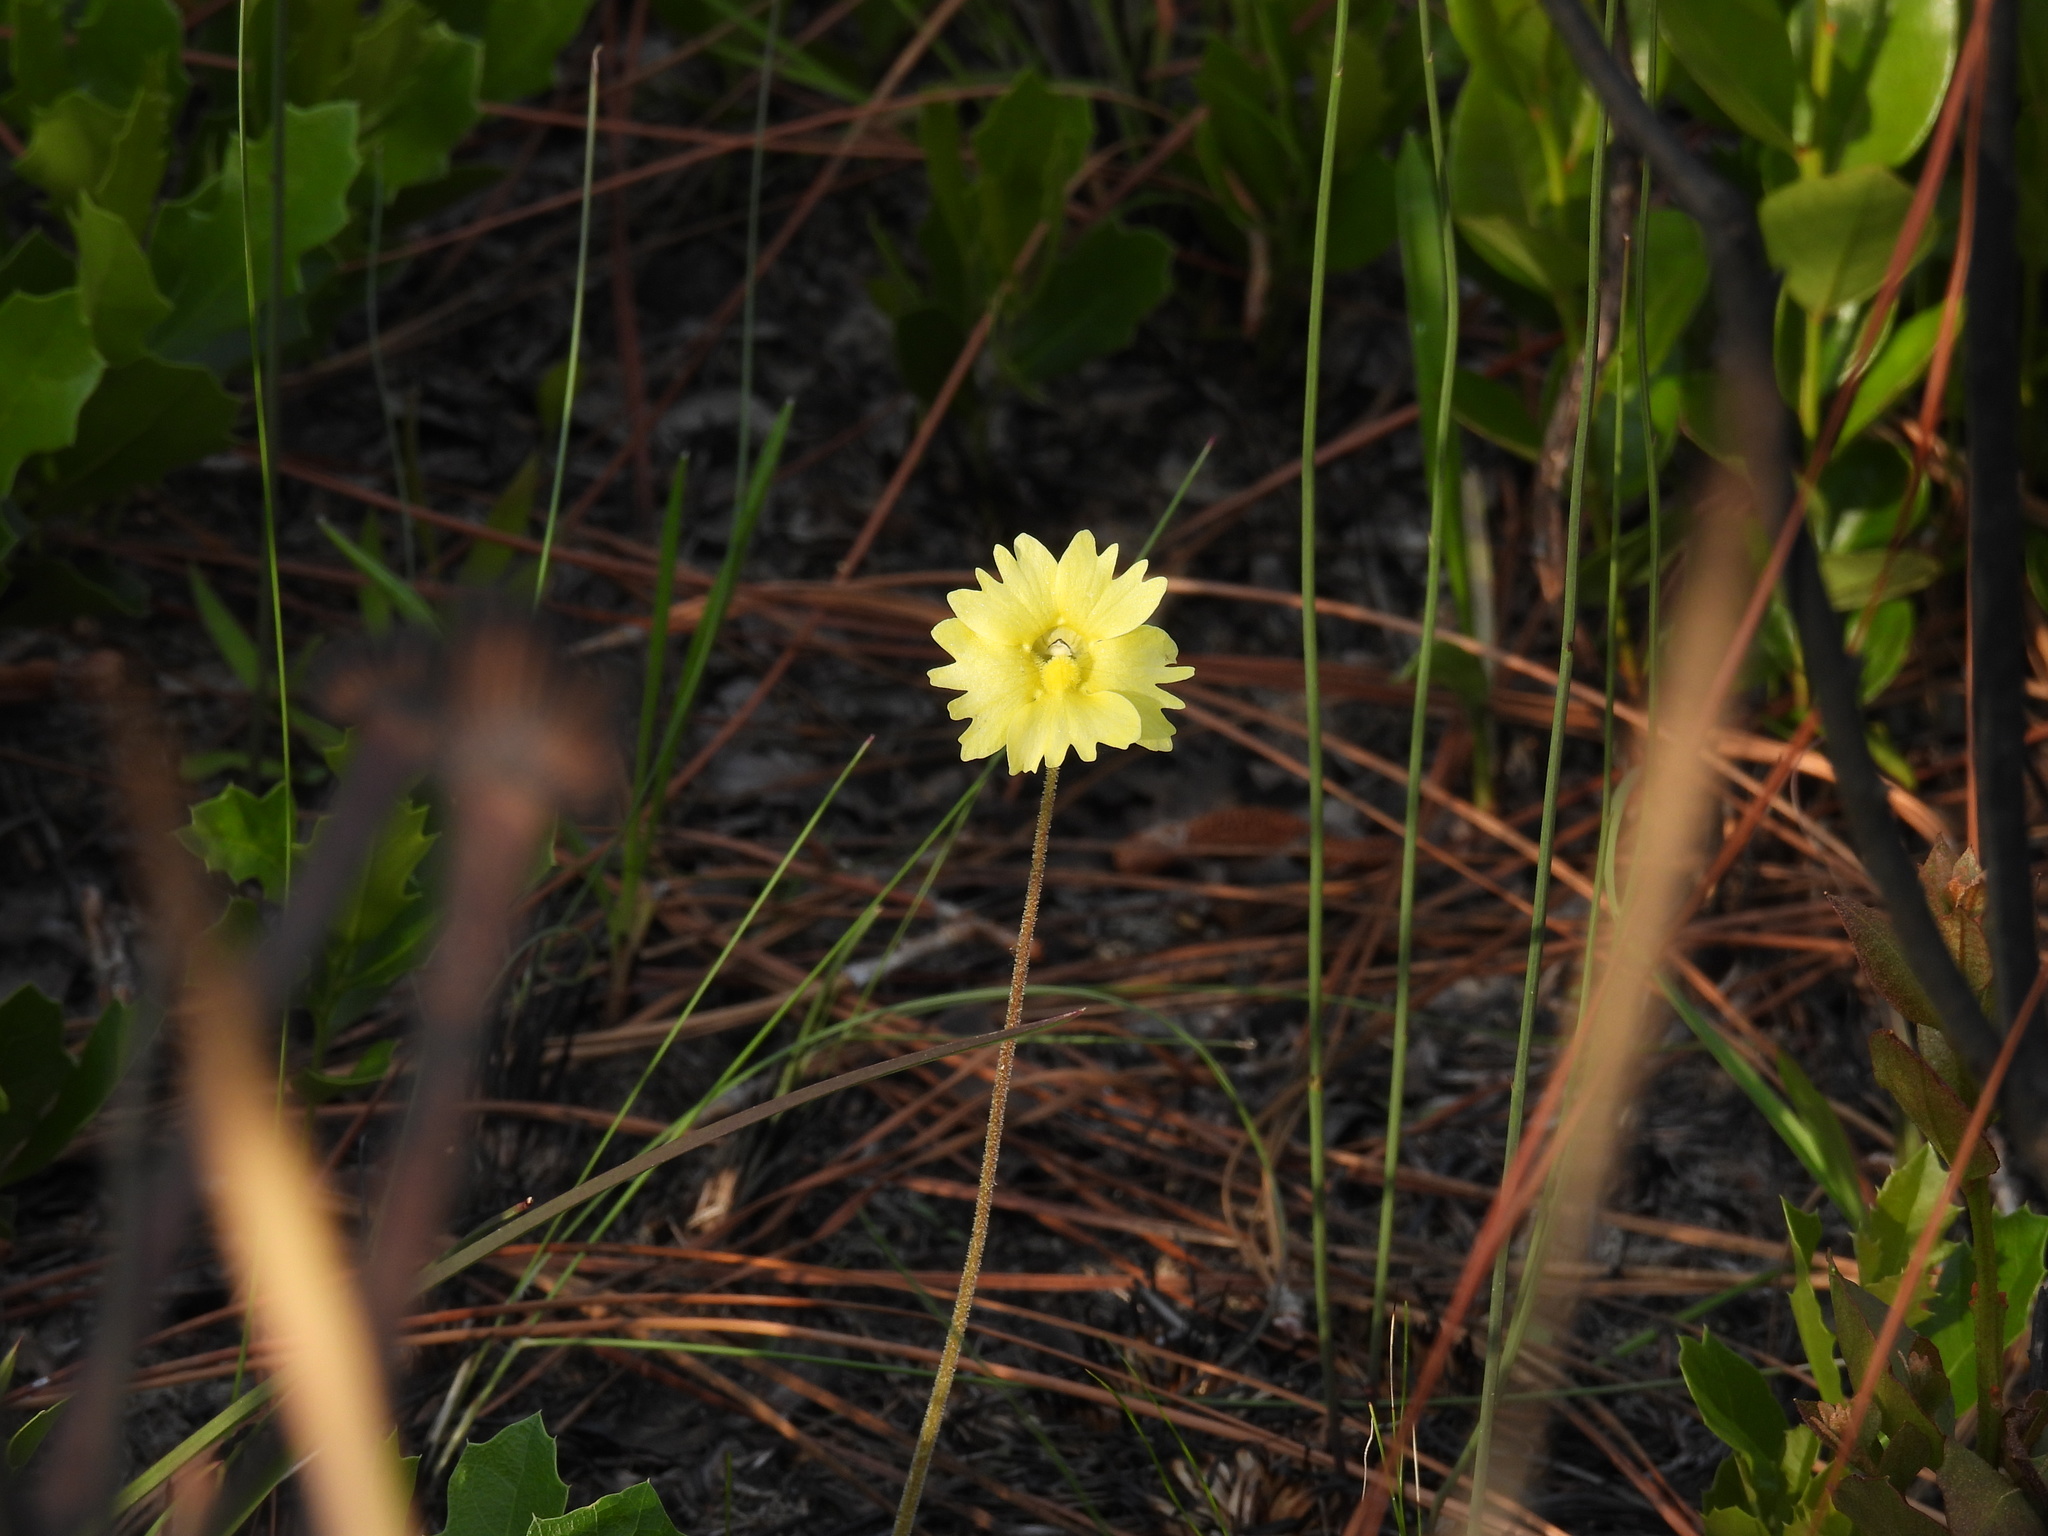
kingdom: Plantae
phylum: Tracheophyta
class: Magnoliopsida
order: Lamiales
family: Lentibulariaceae
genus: Pinguicula
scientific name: Pinguicula lutea
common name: Yellow butterwort
